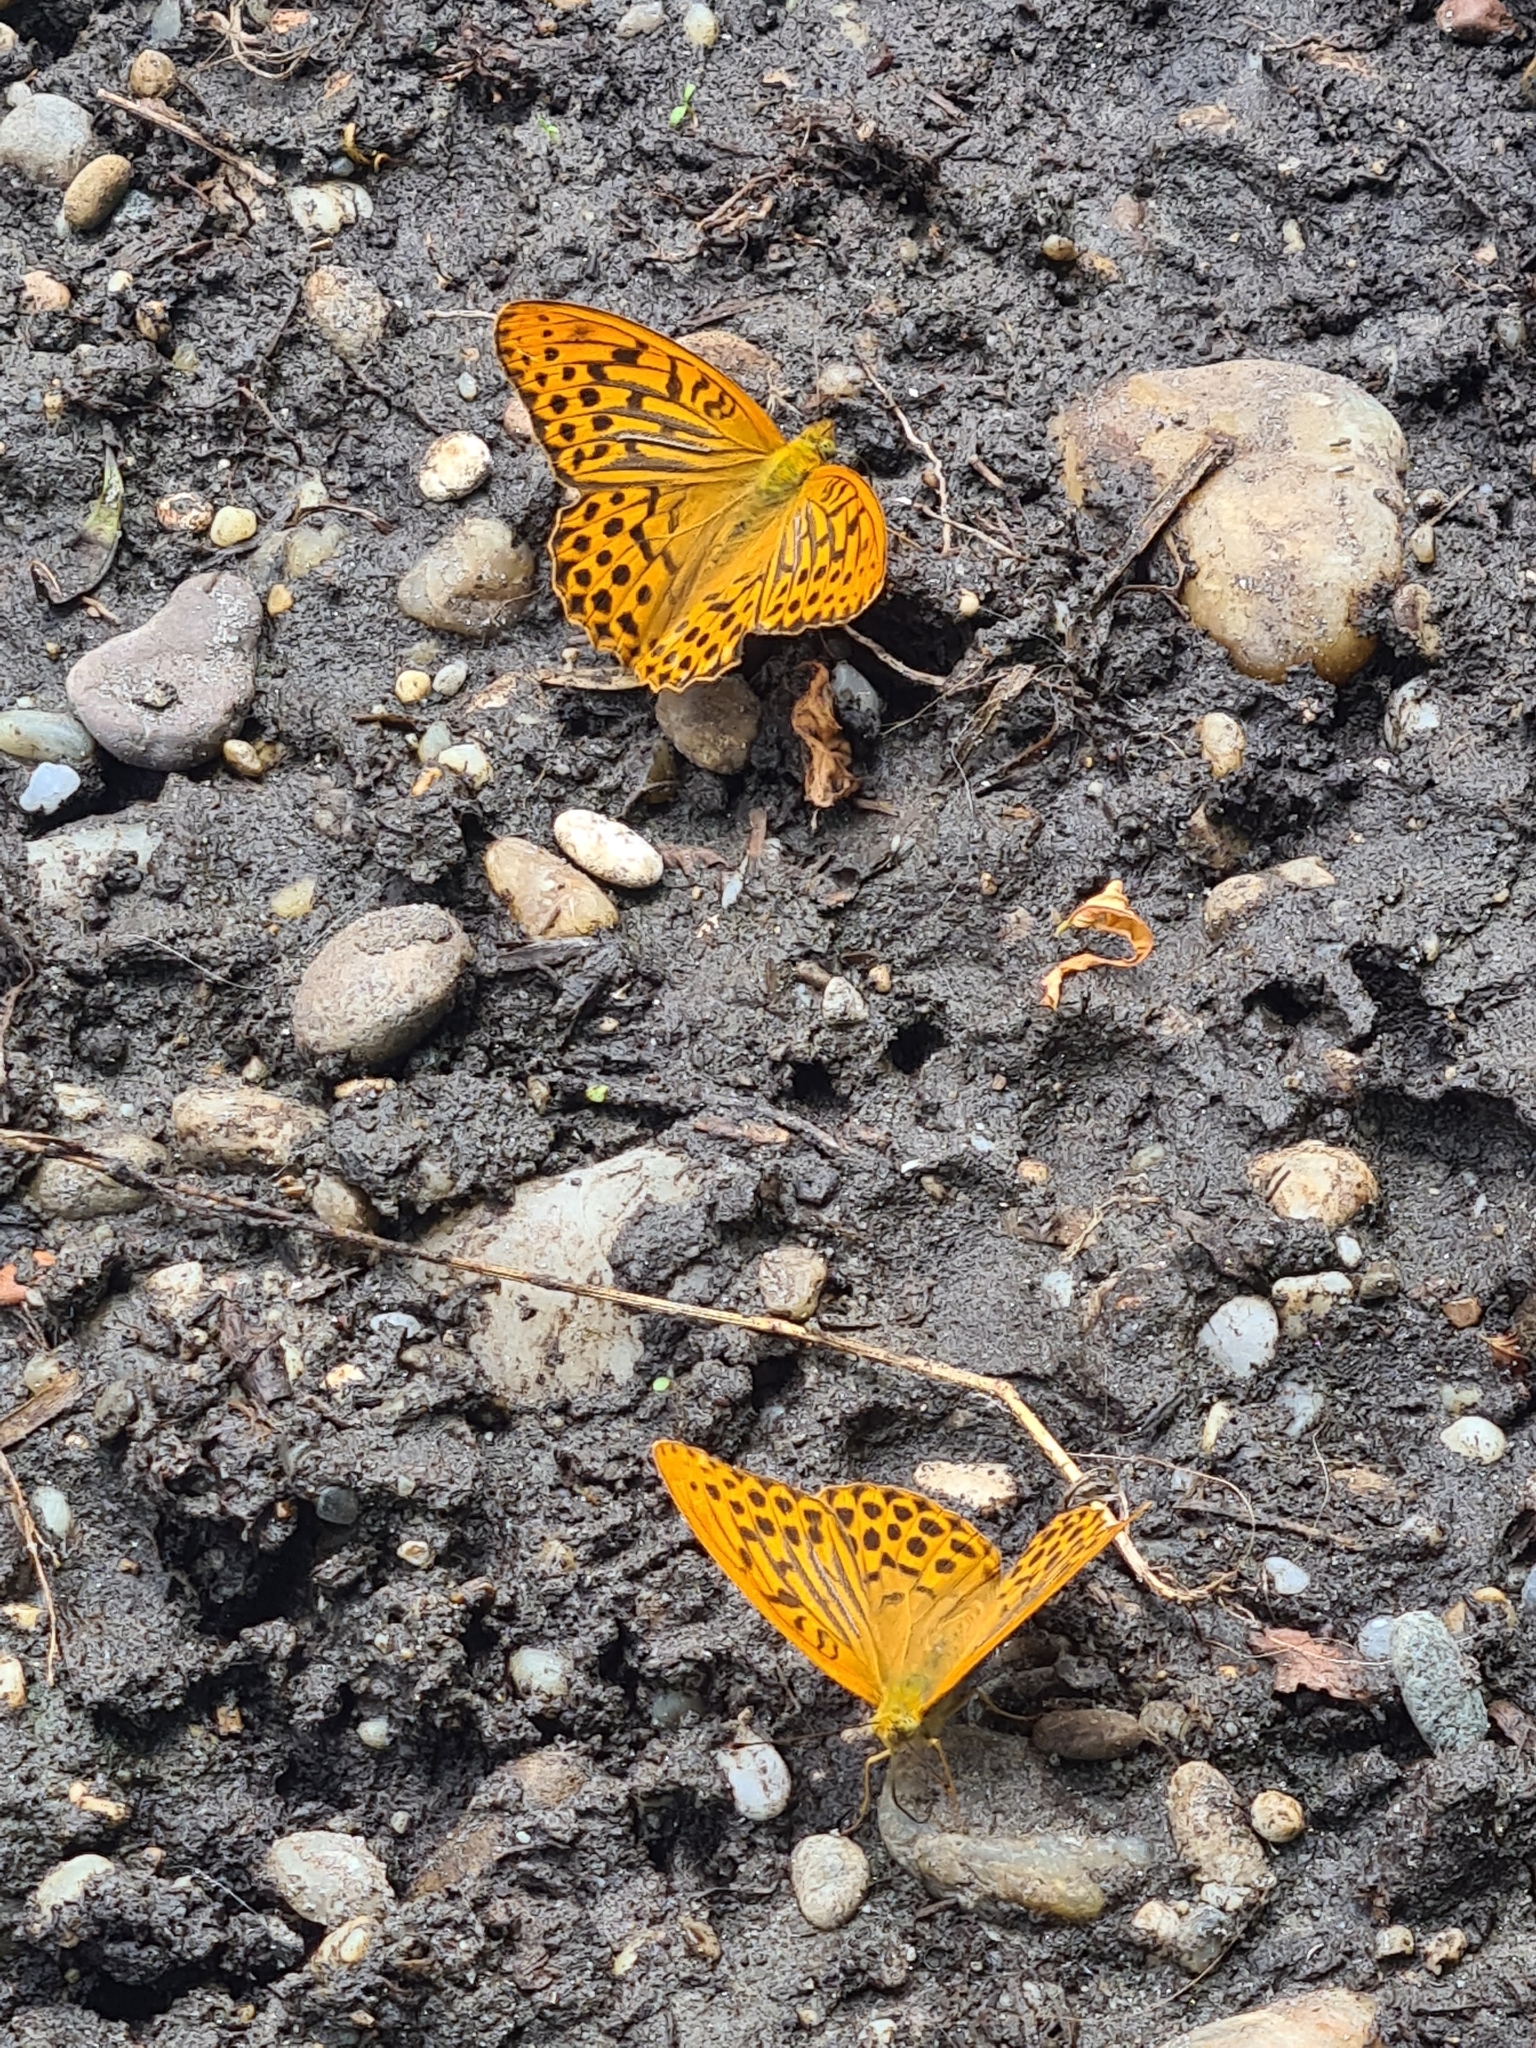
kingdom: Animalia
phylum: Arthropoda
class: Insecta
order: Lepidoptera
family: Nymphalidae
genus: Argynnis
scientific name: Argynnis paphia
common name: Silver-washed fritillary
